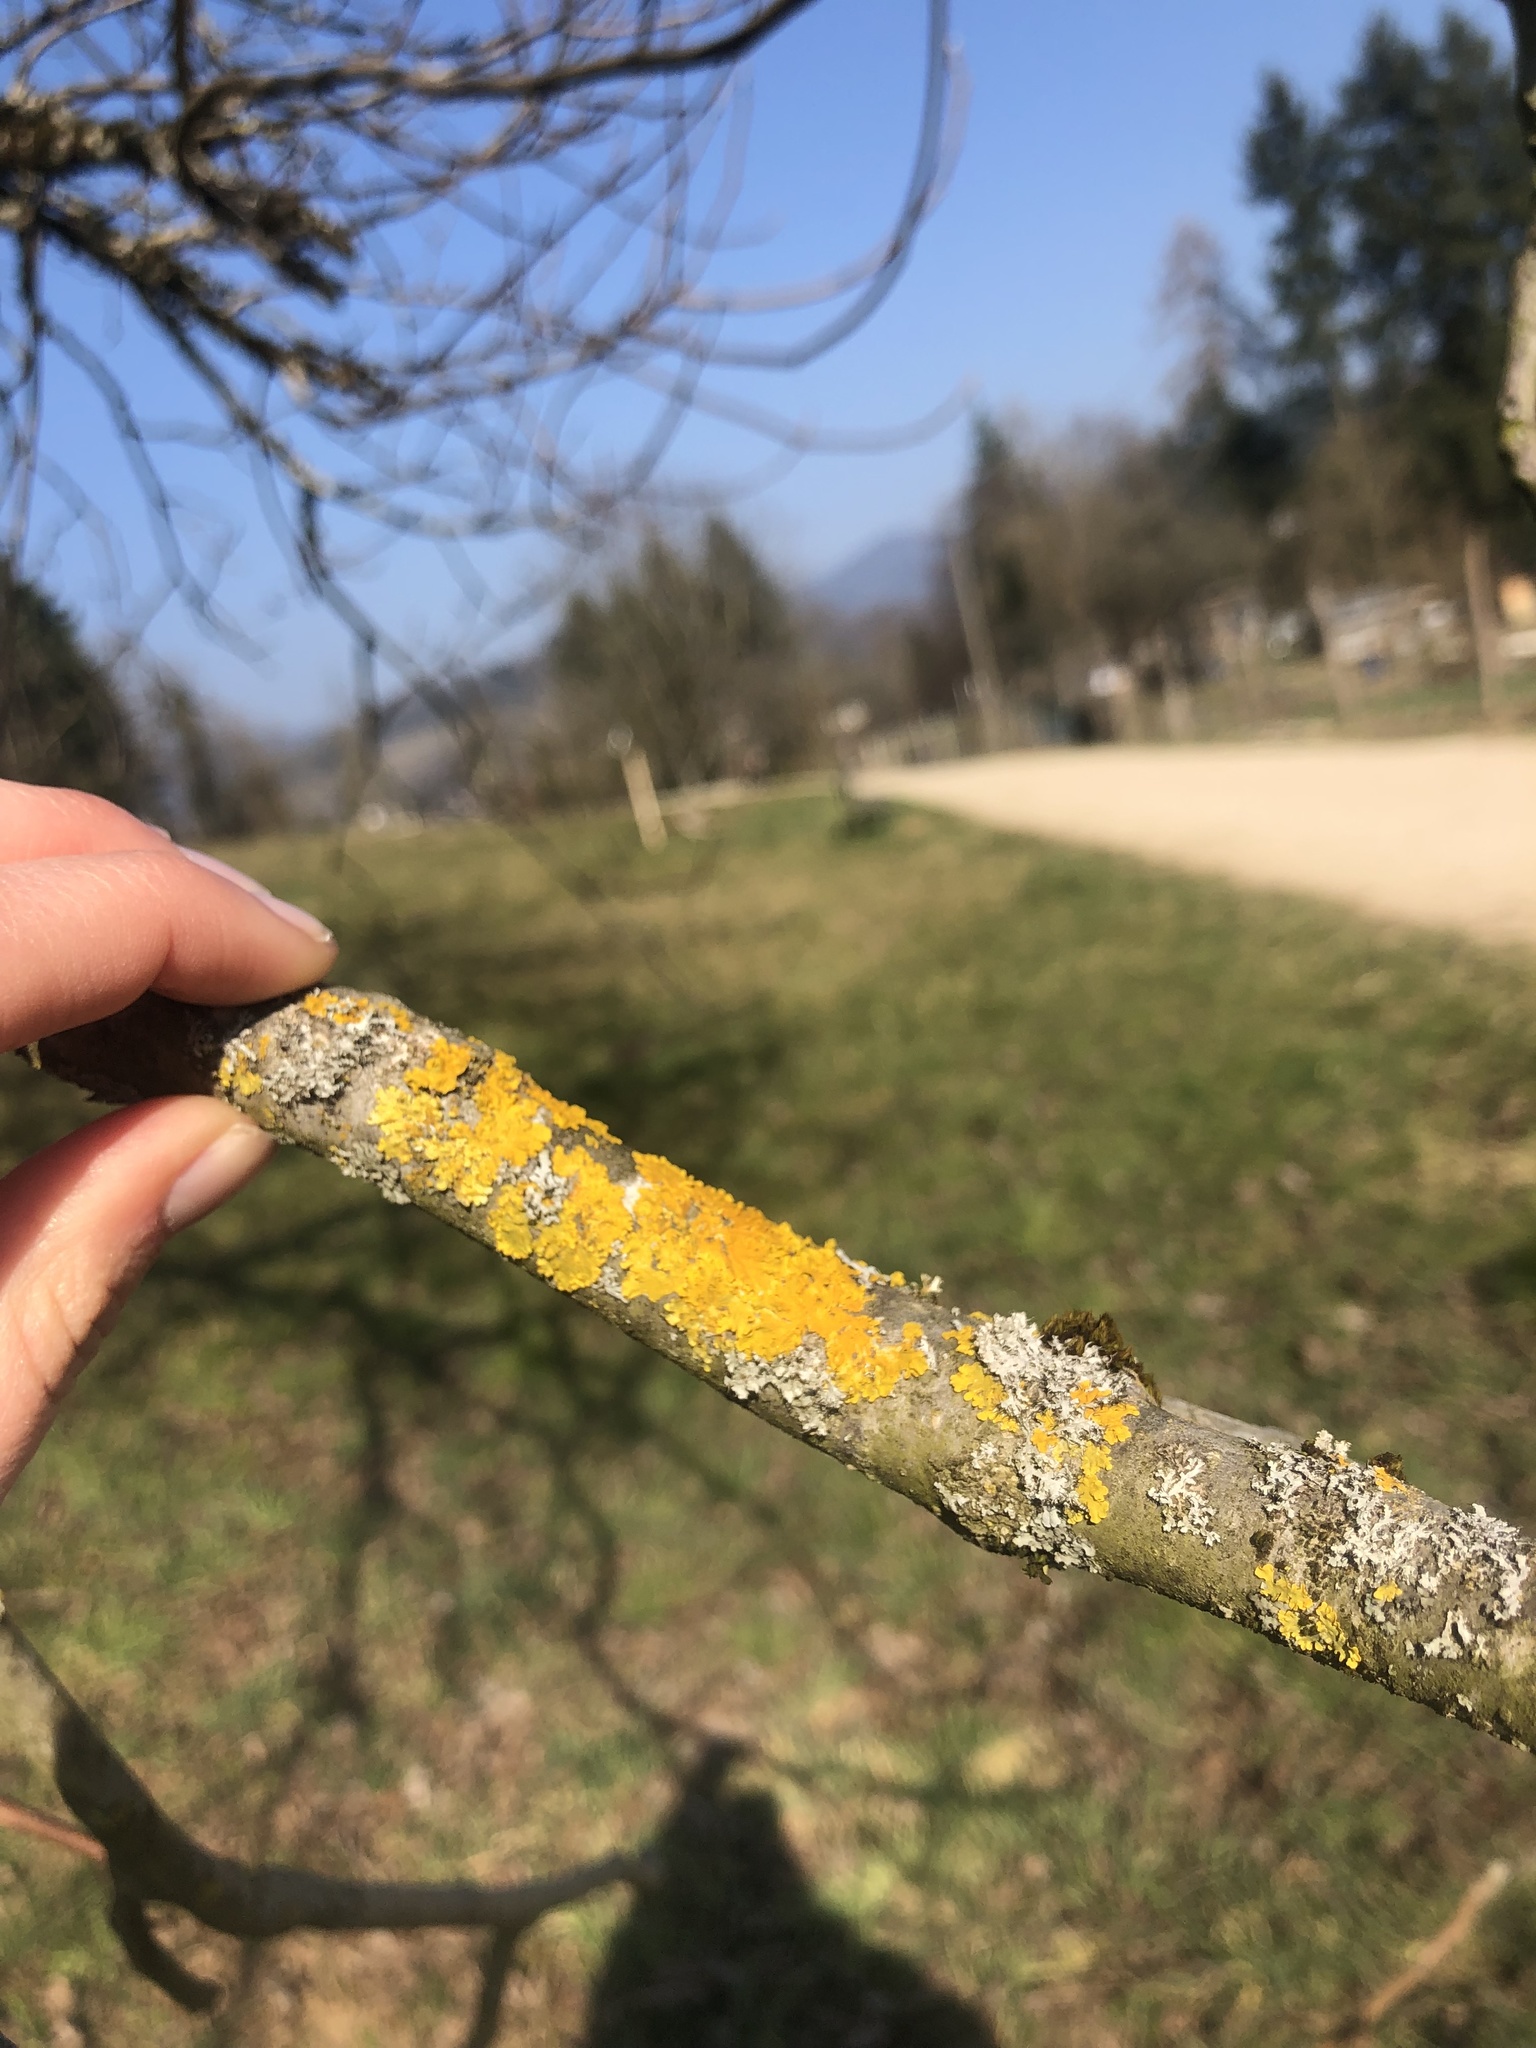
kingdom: Fungi
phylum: Ascomycota
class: Lecanoromycetes
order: Teloschistales
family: Teloschistaceae
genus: Xanthoria
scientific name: Xanthoria parietina
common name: Common orange lichen
